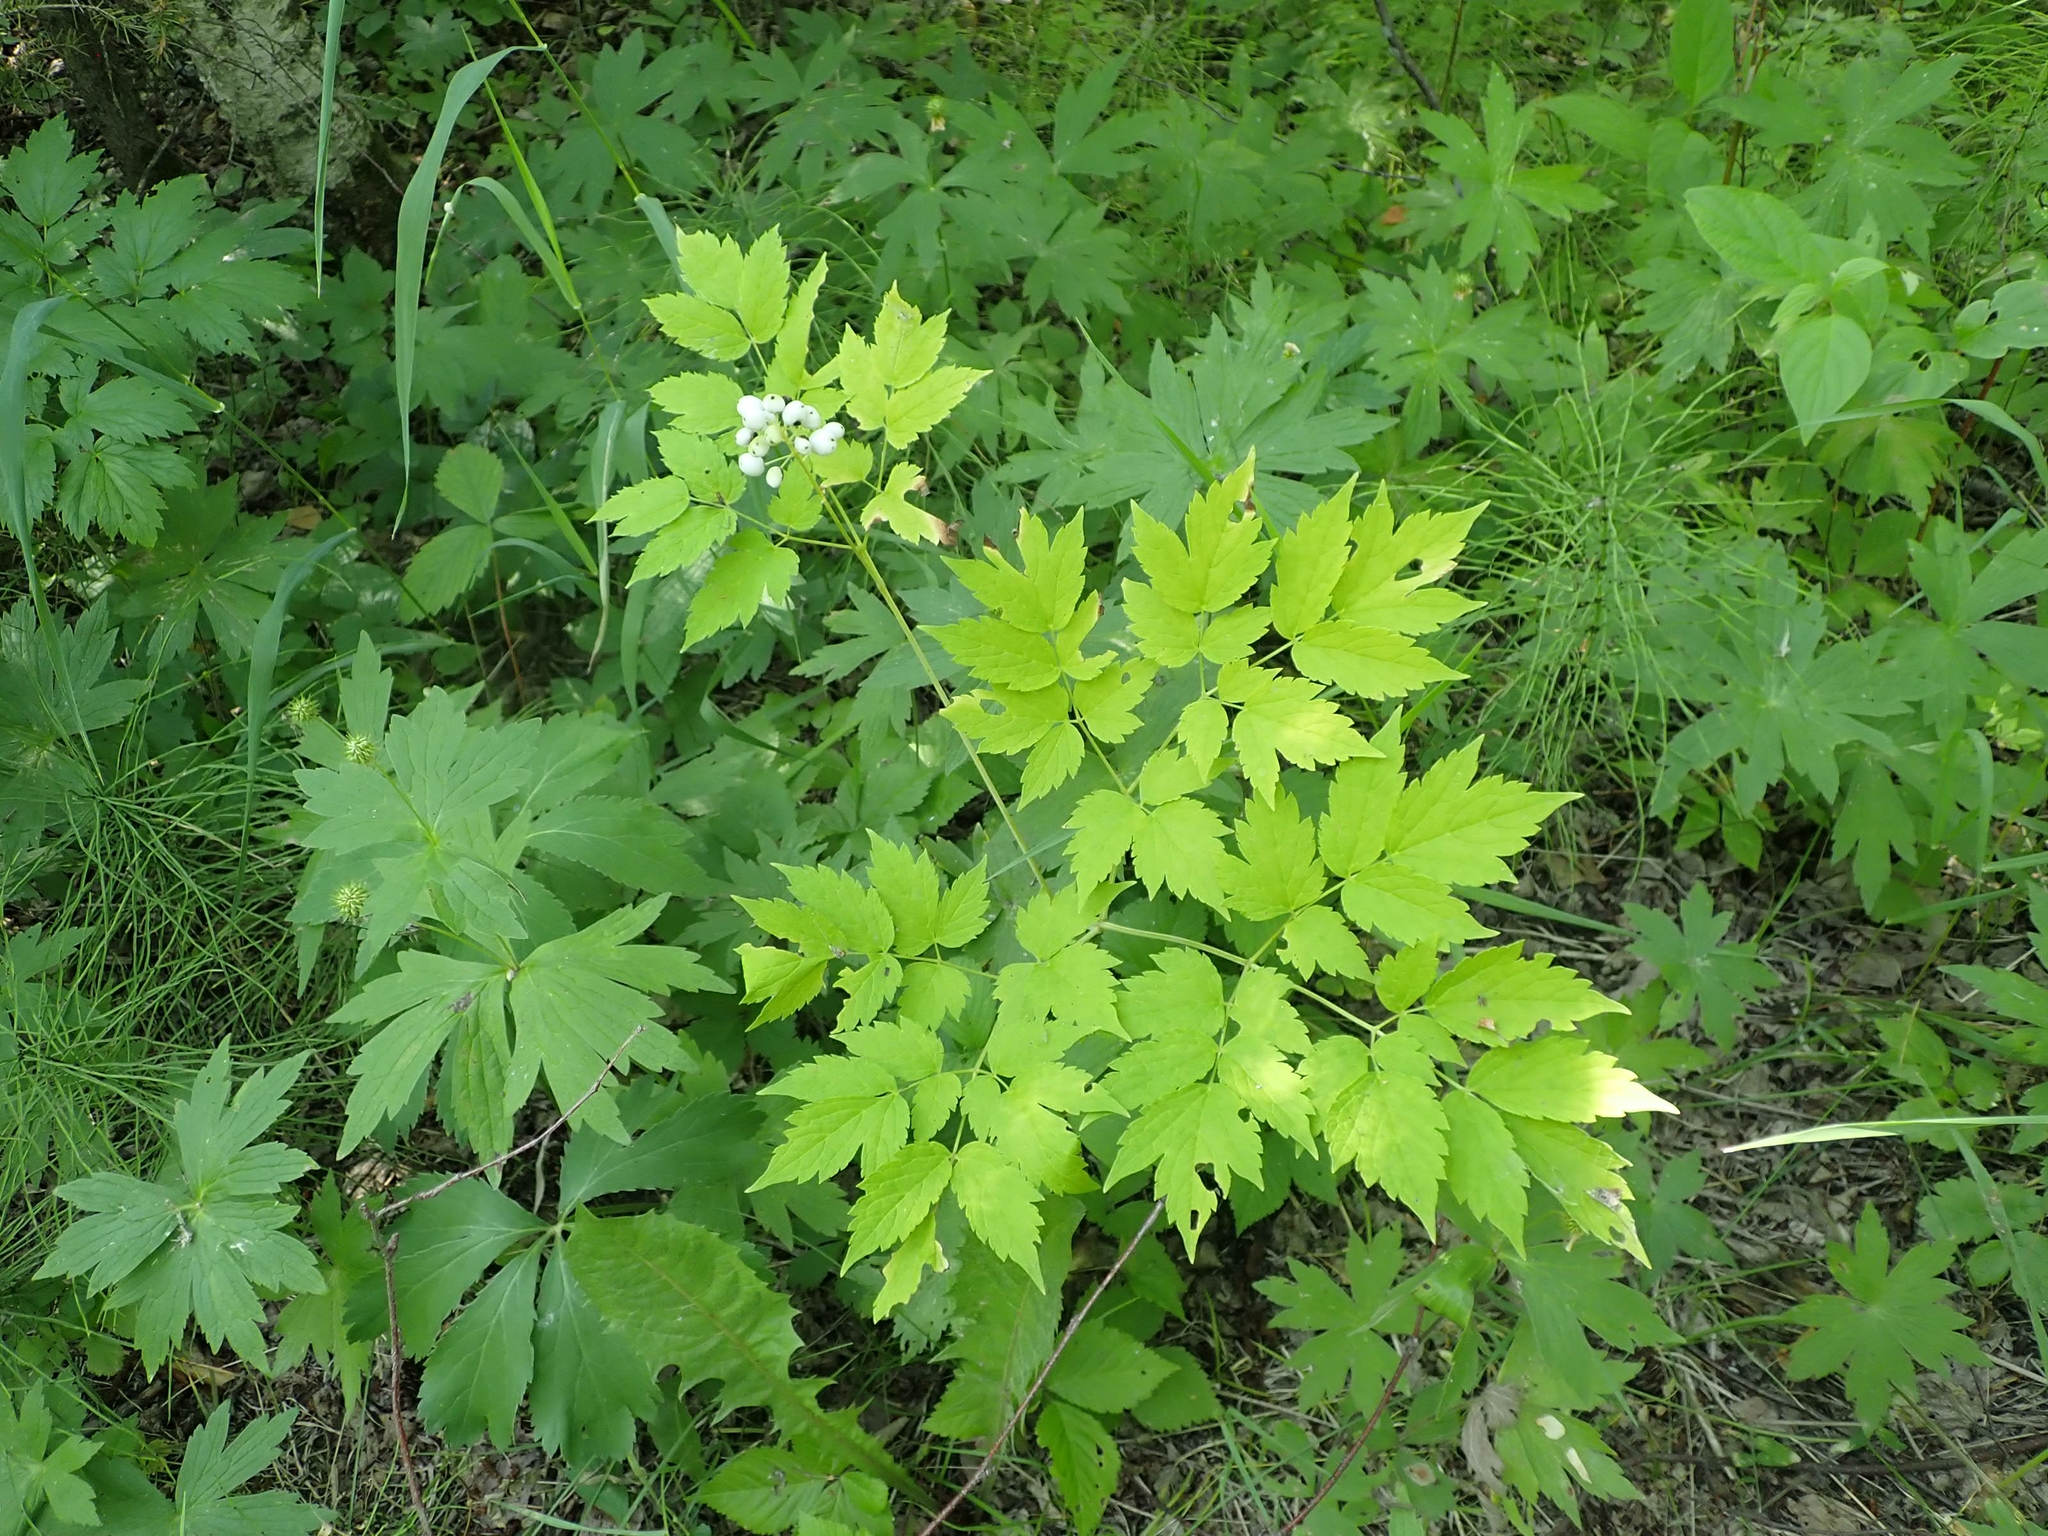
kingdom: Plantae
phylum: Tracheophyta
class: Magnoliopsida
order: Ranunculales
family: Ranunculaceae
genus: Actaea
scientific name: Actaea rubra
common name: Red baneberry
